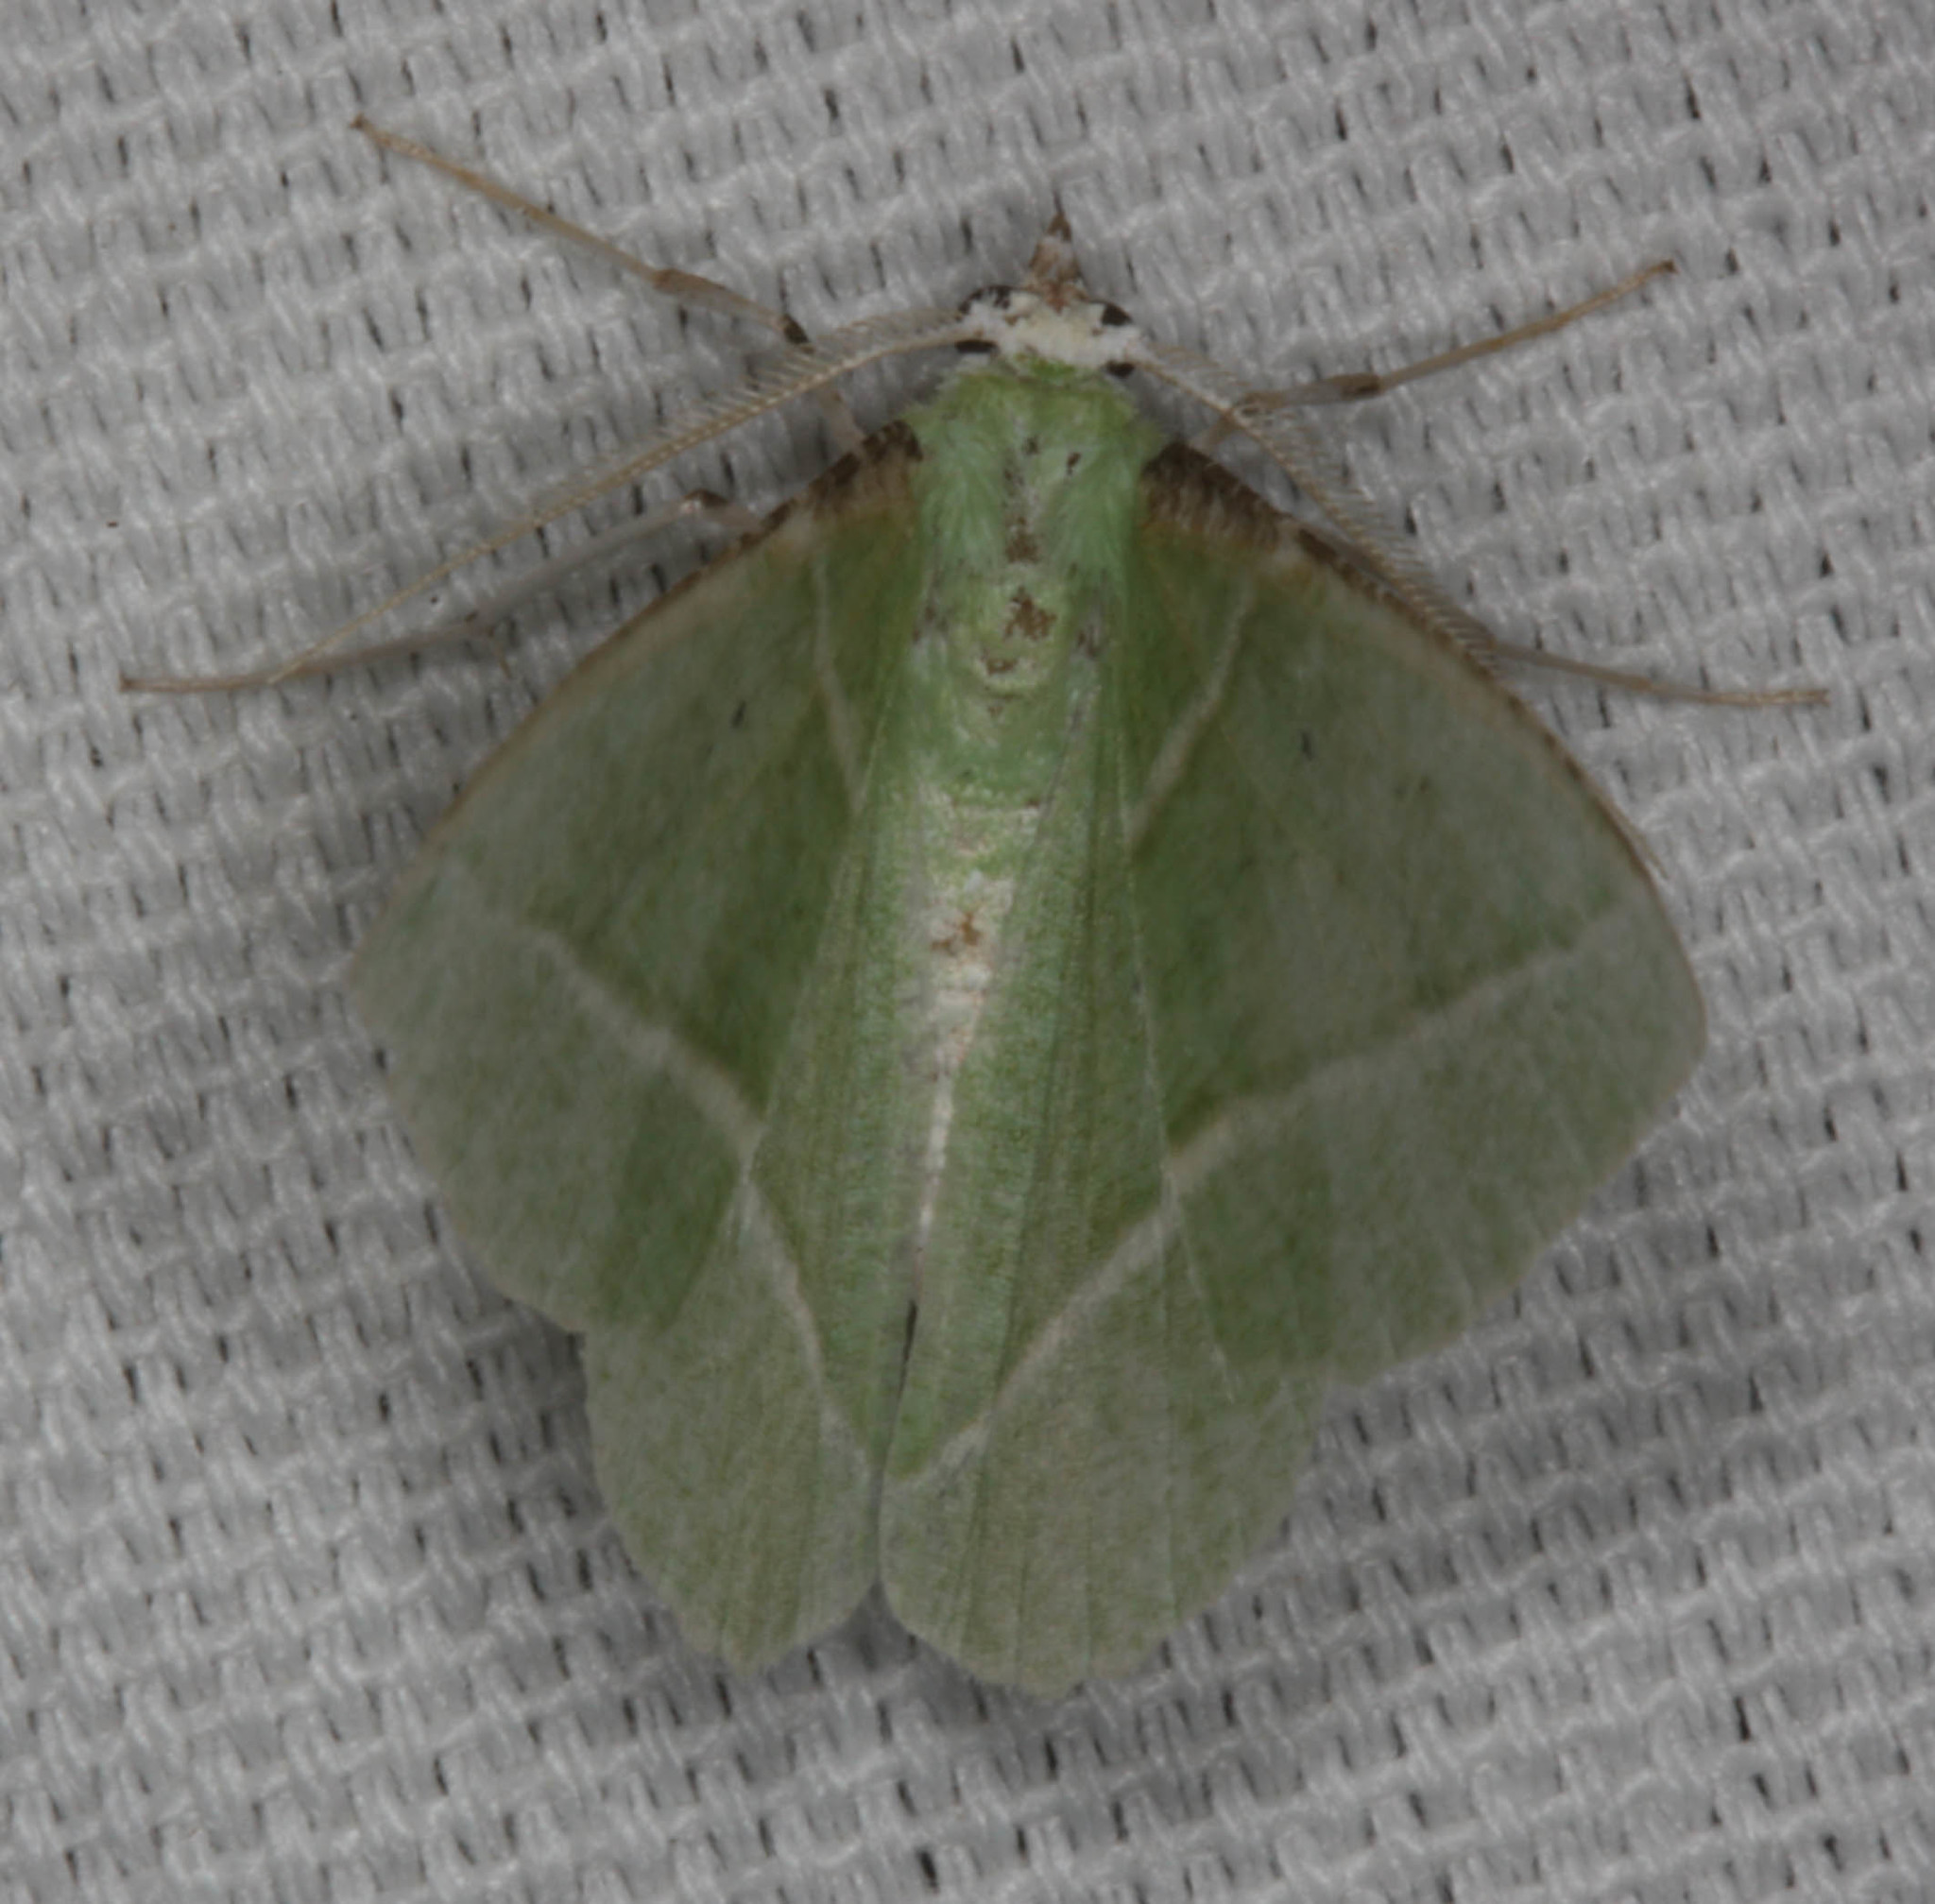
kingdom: Animalia
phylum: Arthropoda
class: Insecta
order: Lepidoptera
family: Geometridae
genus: Dichorda
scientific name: Dichorda illustraria
